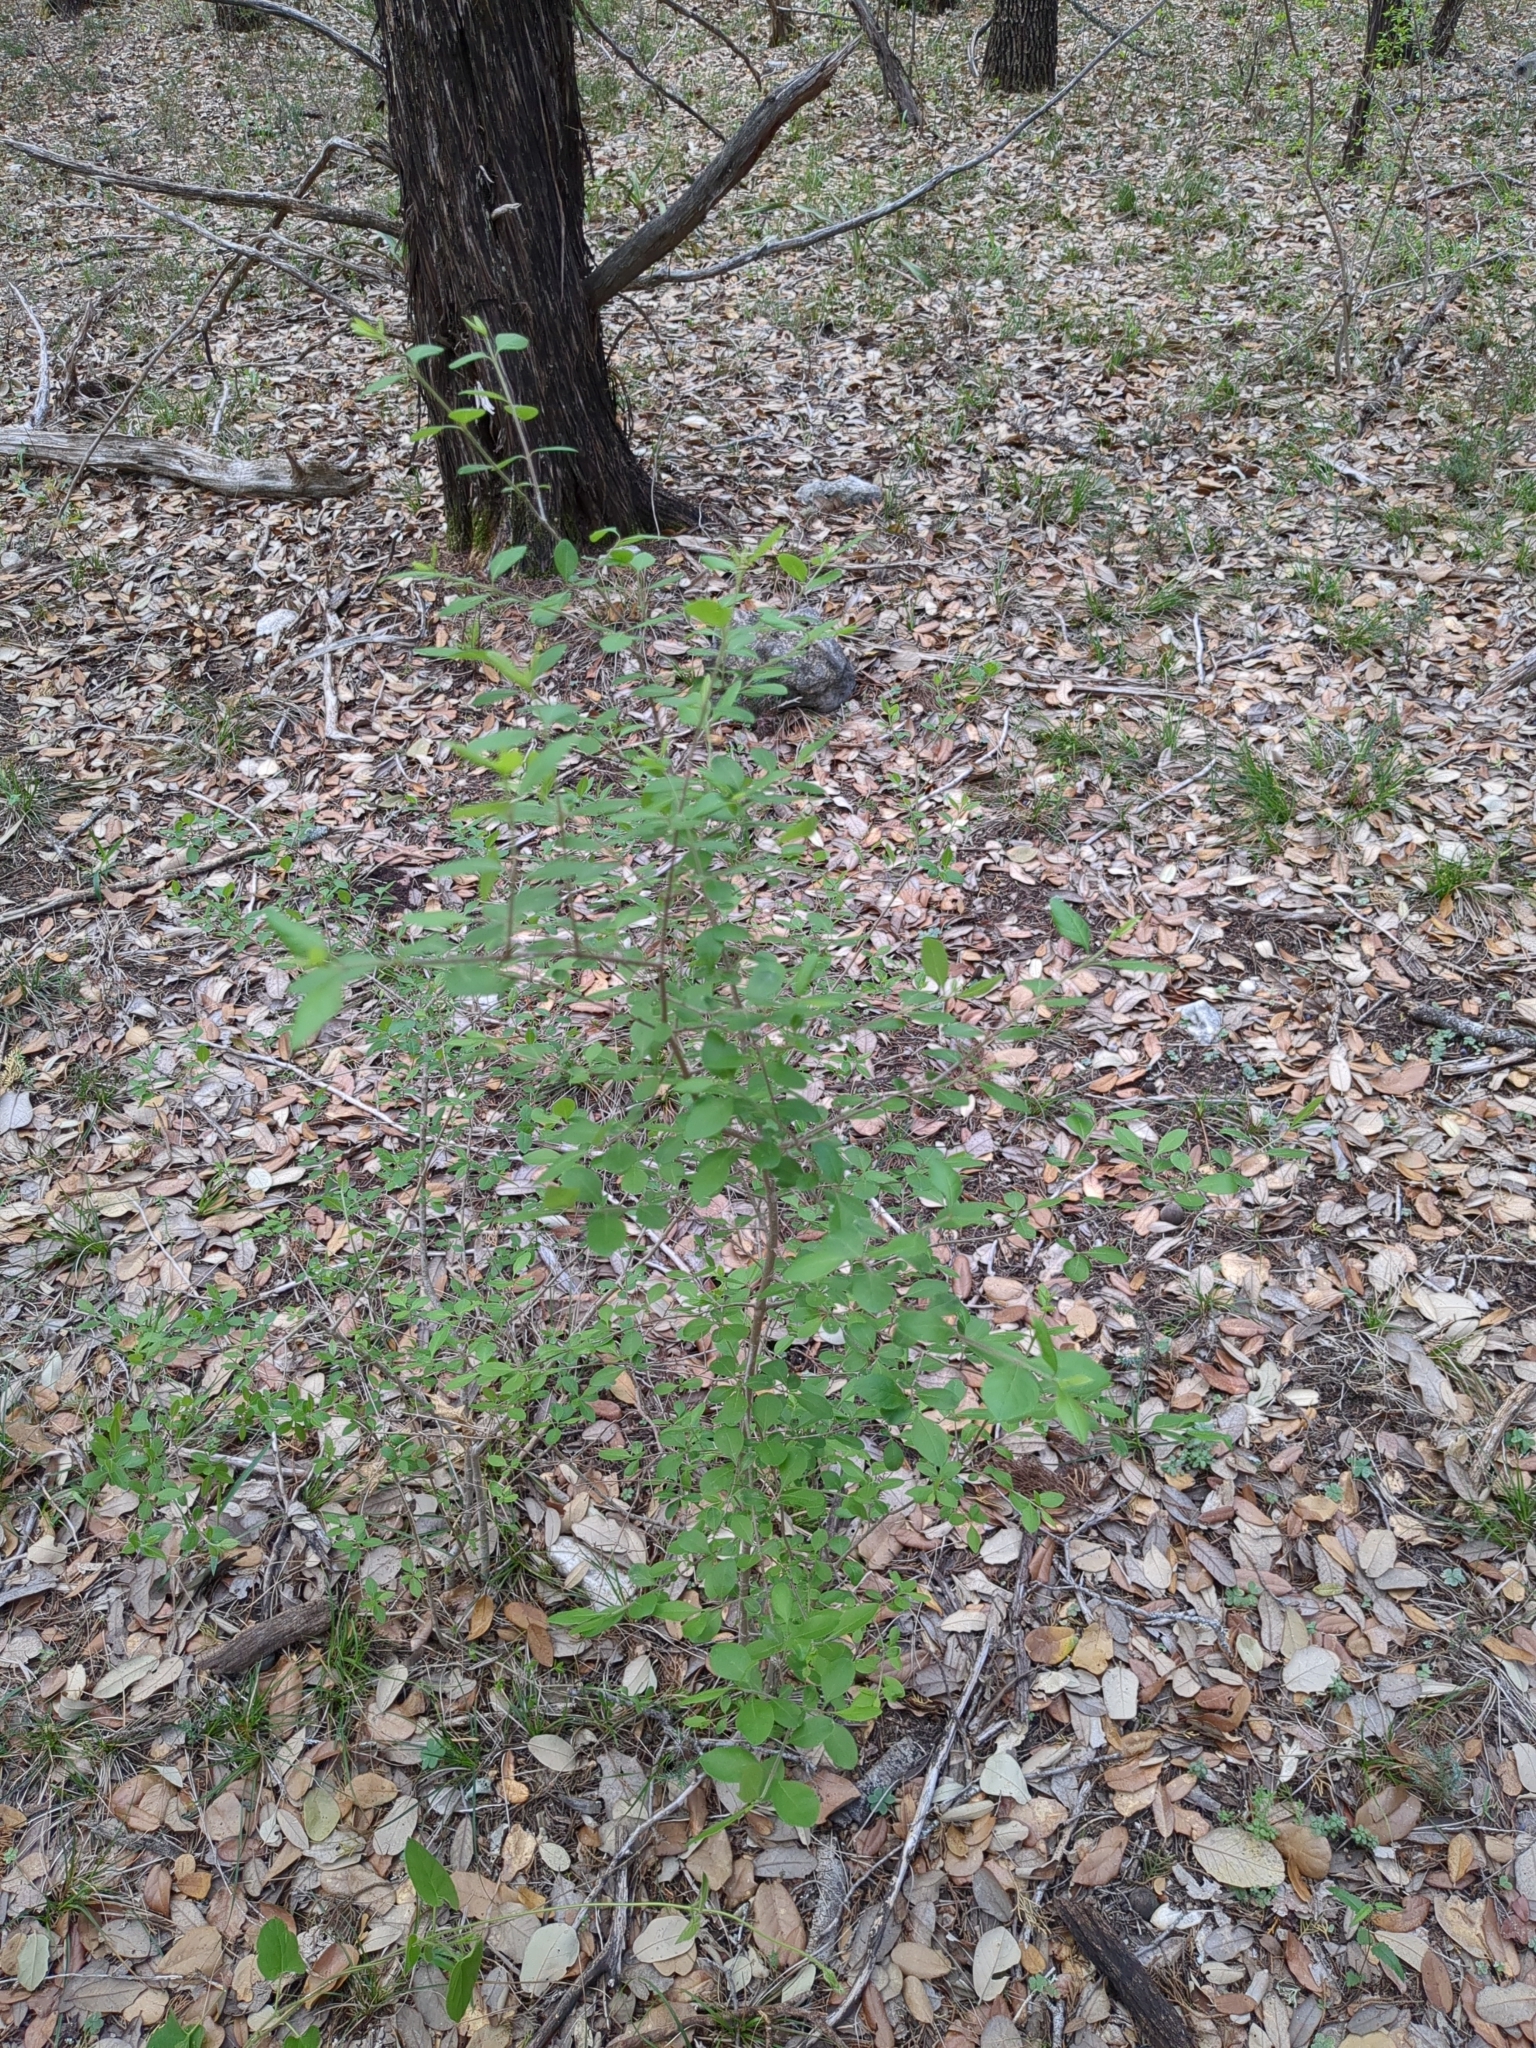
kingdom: Plantae
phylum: Tracheophyta
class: Magnoliopsida
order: Lamiales
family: Oleaceae
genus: Forestiera
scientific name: Forestiera pubescens
